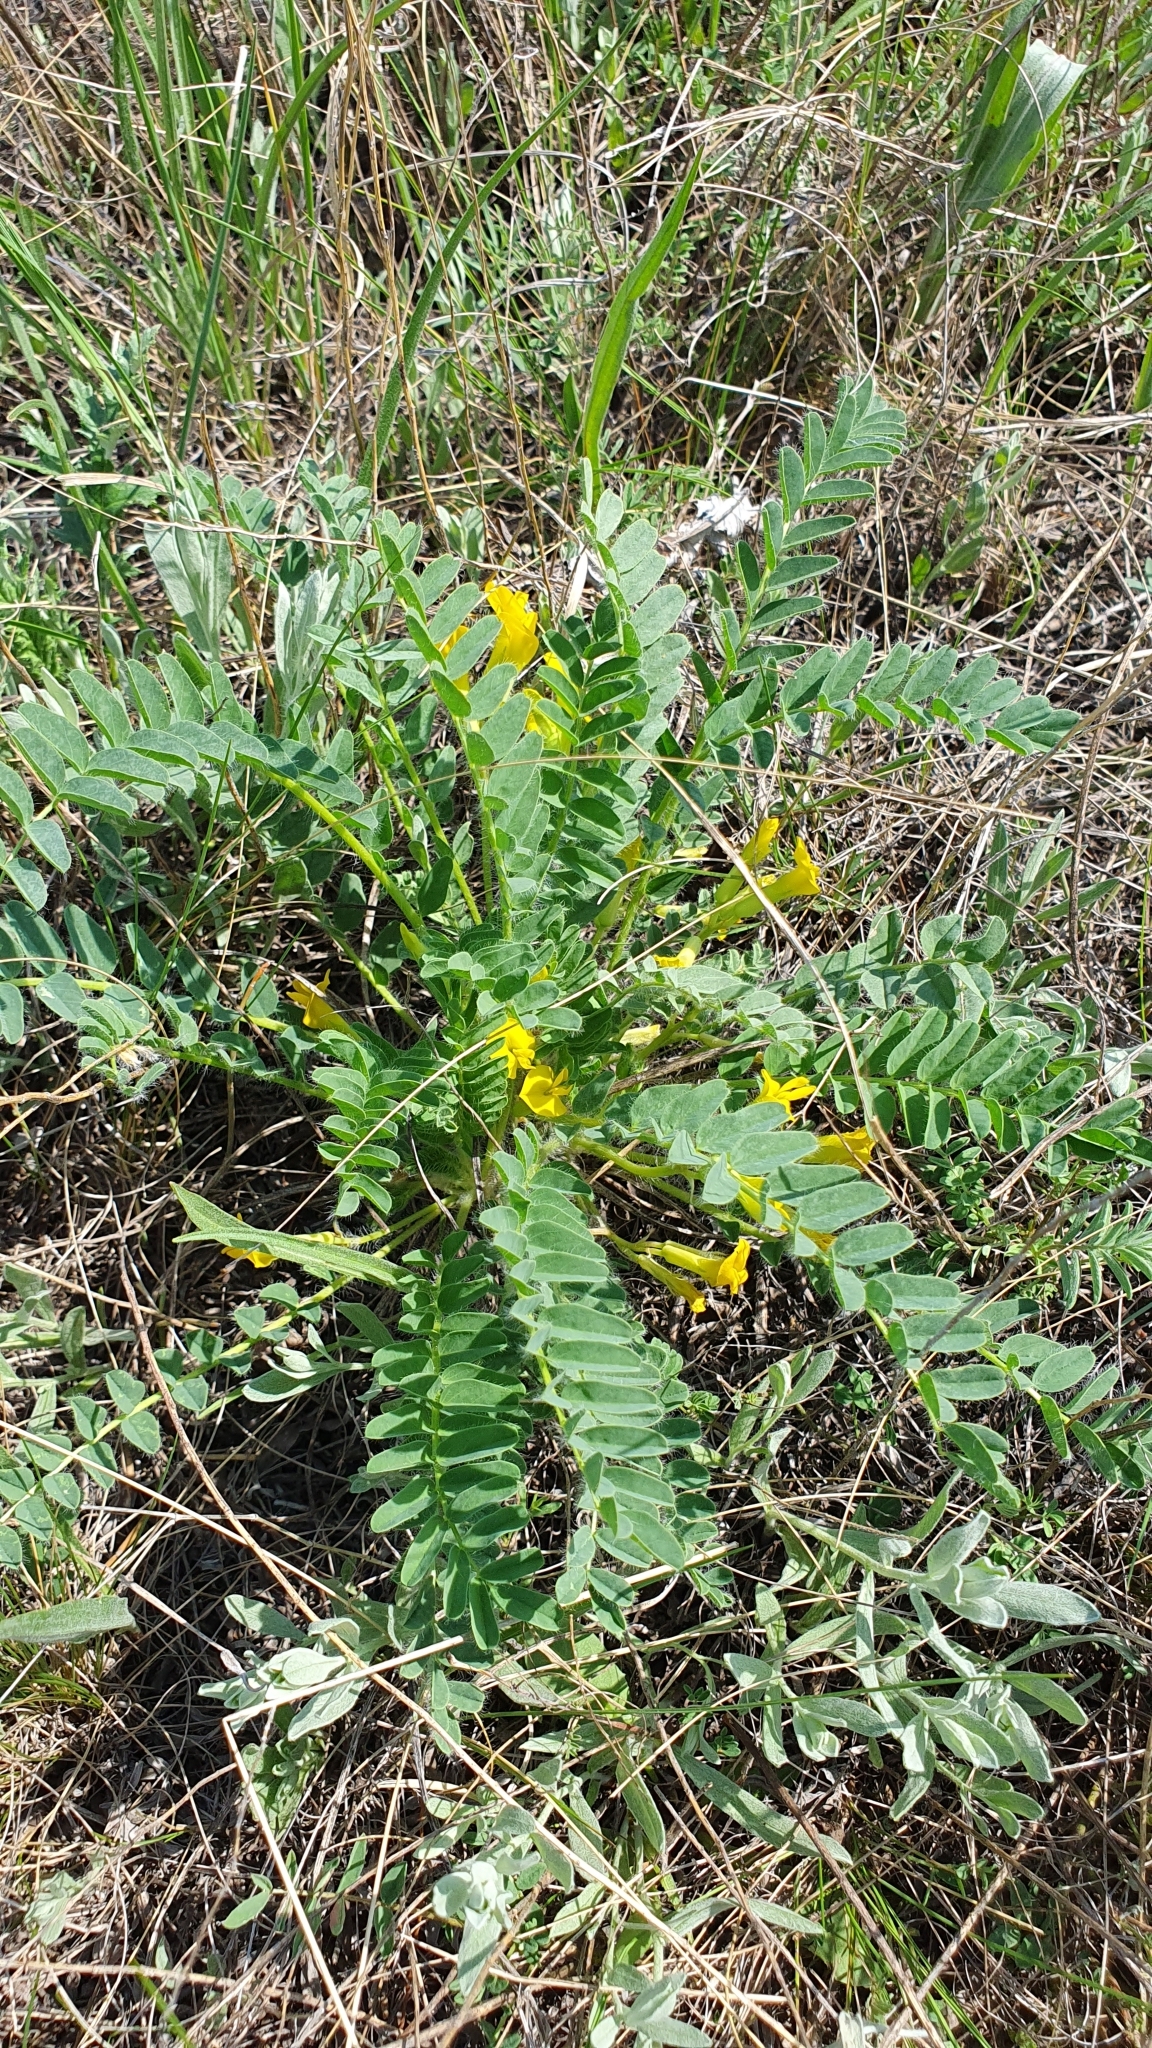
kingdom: Plantae
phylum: Tracheophyta
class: Magnoliopsida
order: Fabales
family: Fabaceae
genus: Astragalus
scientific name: Astragalus wolgensis
